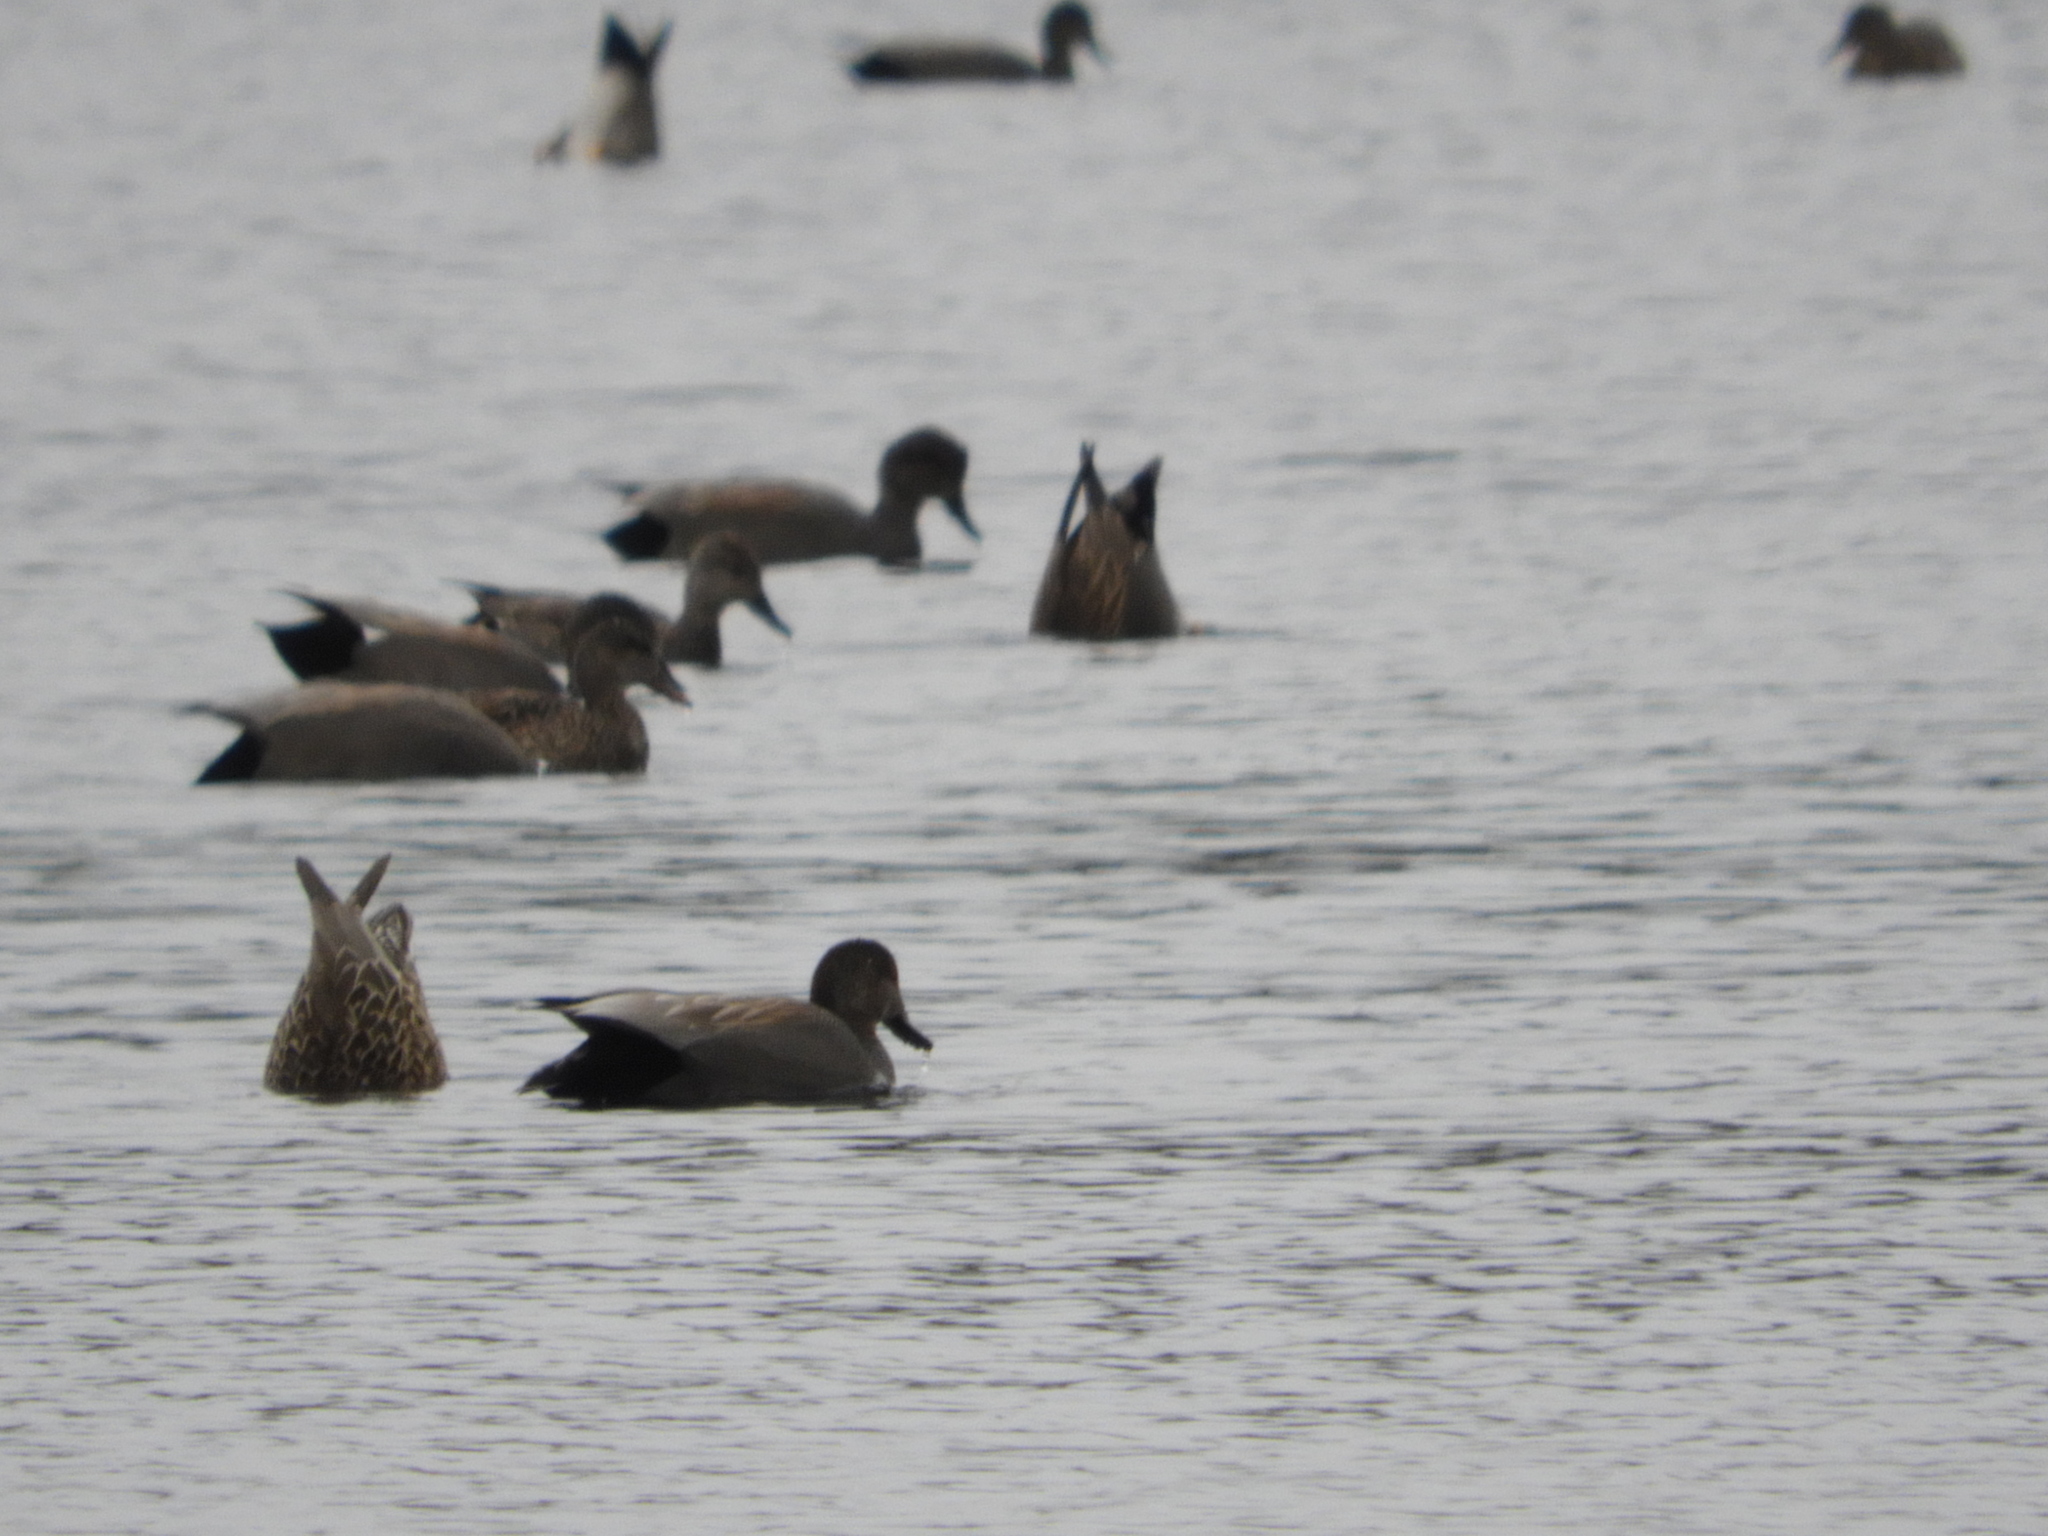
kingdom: Animalia
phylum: Chordata
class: Aves
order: Anseriformes
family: Anatidae
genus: Mareca
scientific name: Mareca strepera
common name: Gadwall
